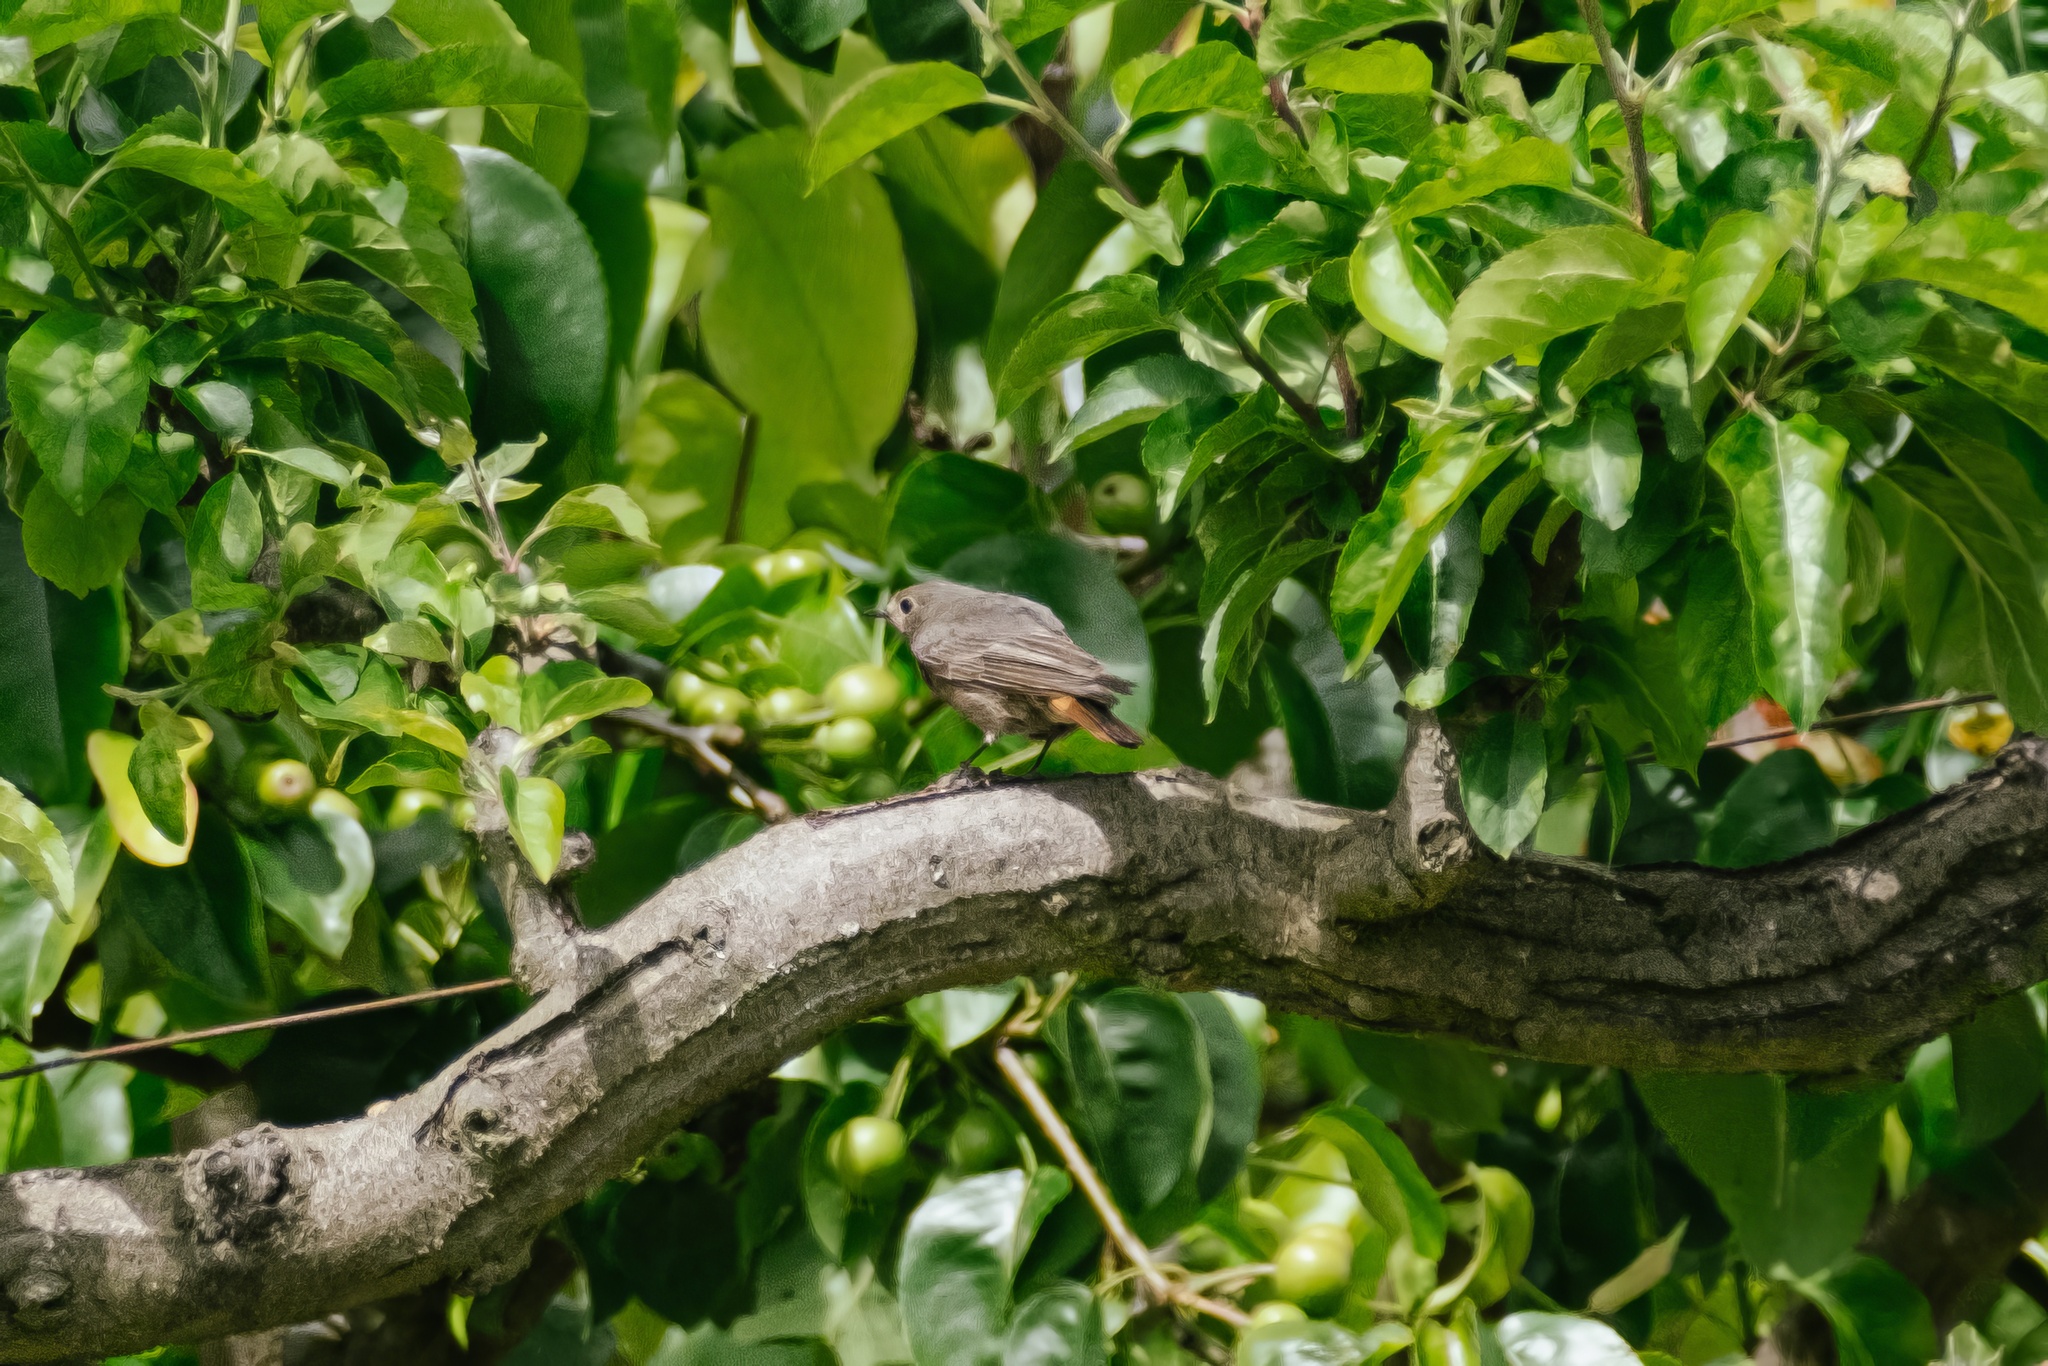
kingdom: Animalia
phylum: Chordata
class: Aves
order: Passeriformes
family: Muscicapidae
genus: Phoenicurus
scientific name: Phoenicurus ochruros
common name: Black redstart
